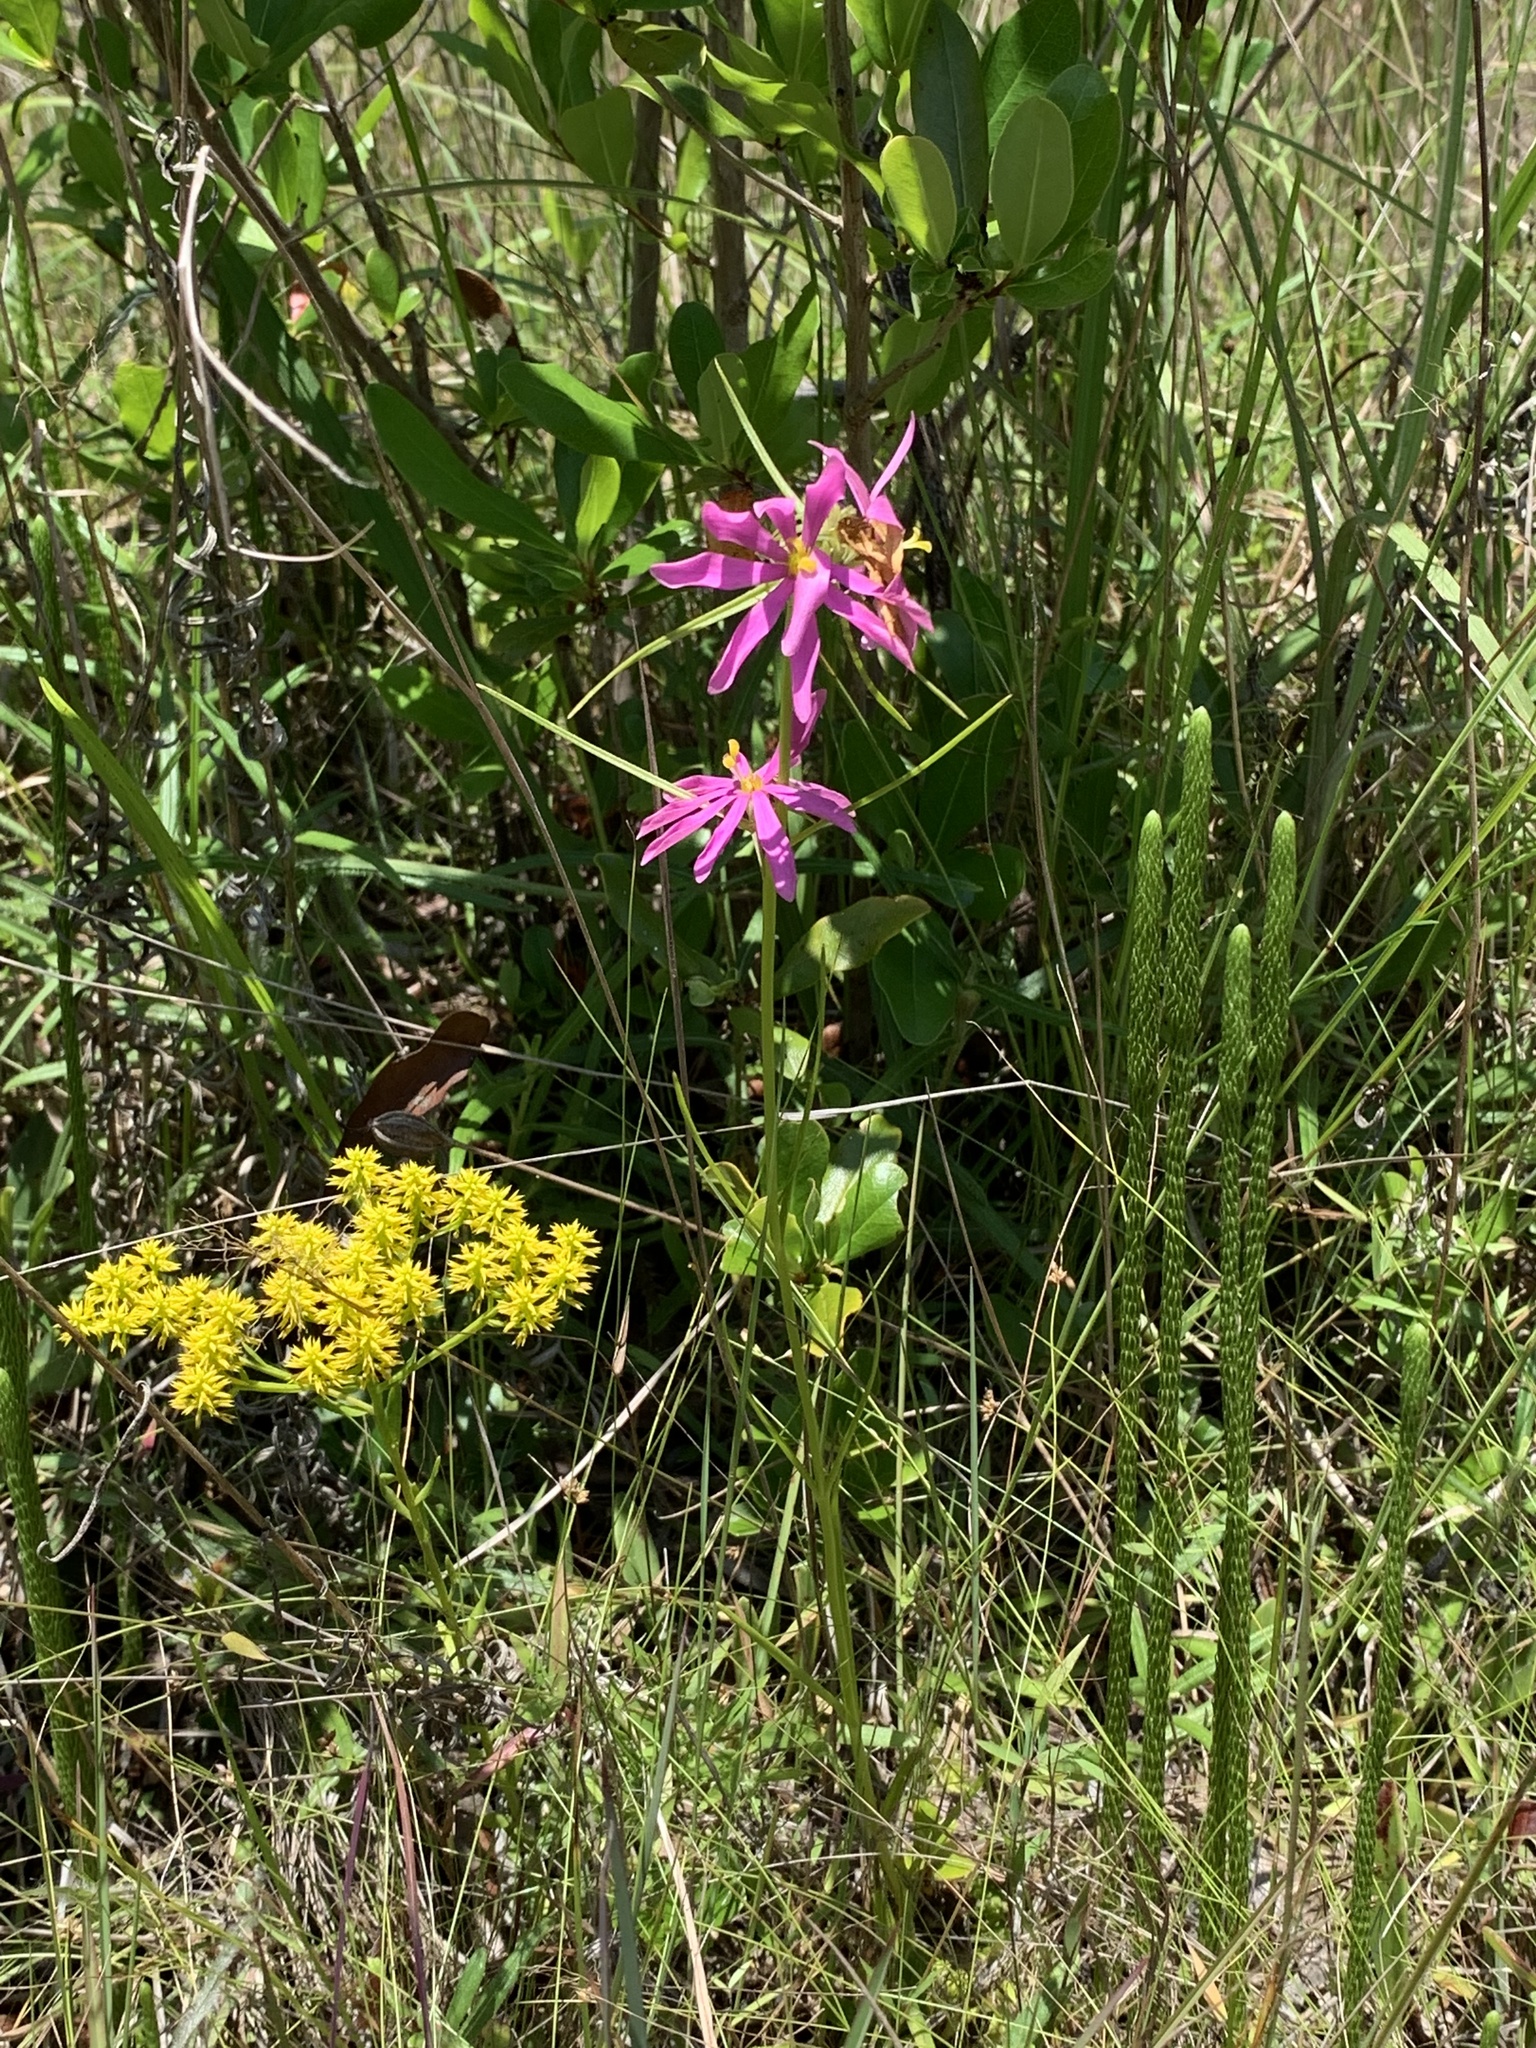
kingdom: Plantae
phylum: Tracheophyta
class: Lycopodiopsida
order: Lycopodiales
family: Lycopodiaceae
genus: Lycopodiella
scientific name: Lycopodiella appressa
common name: Appressed bog clubmoss
